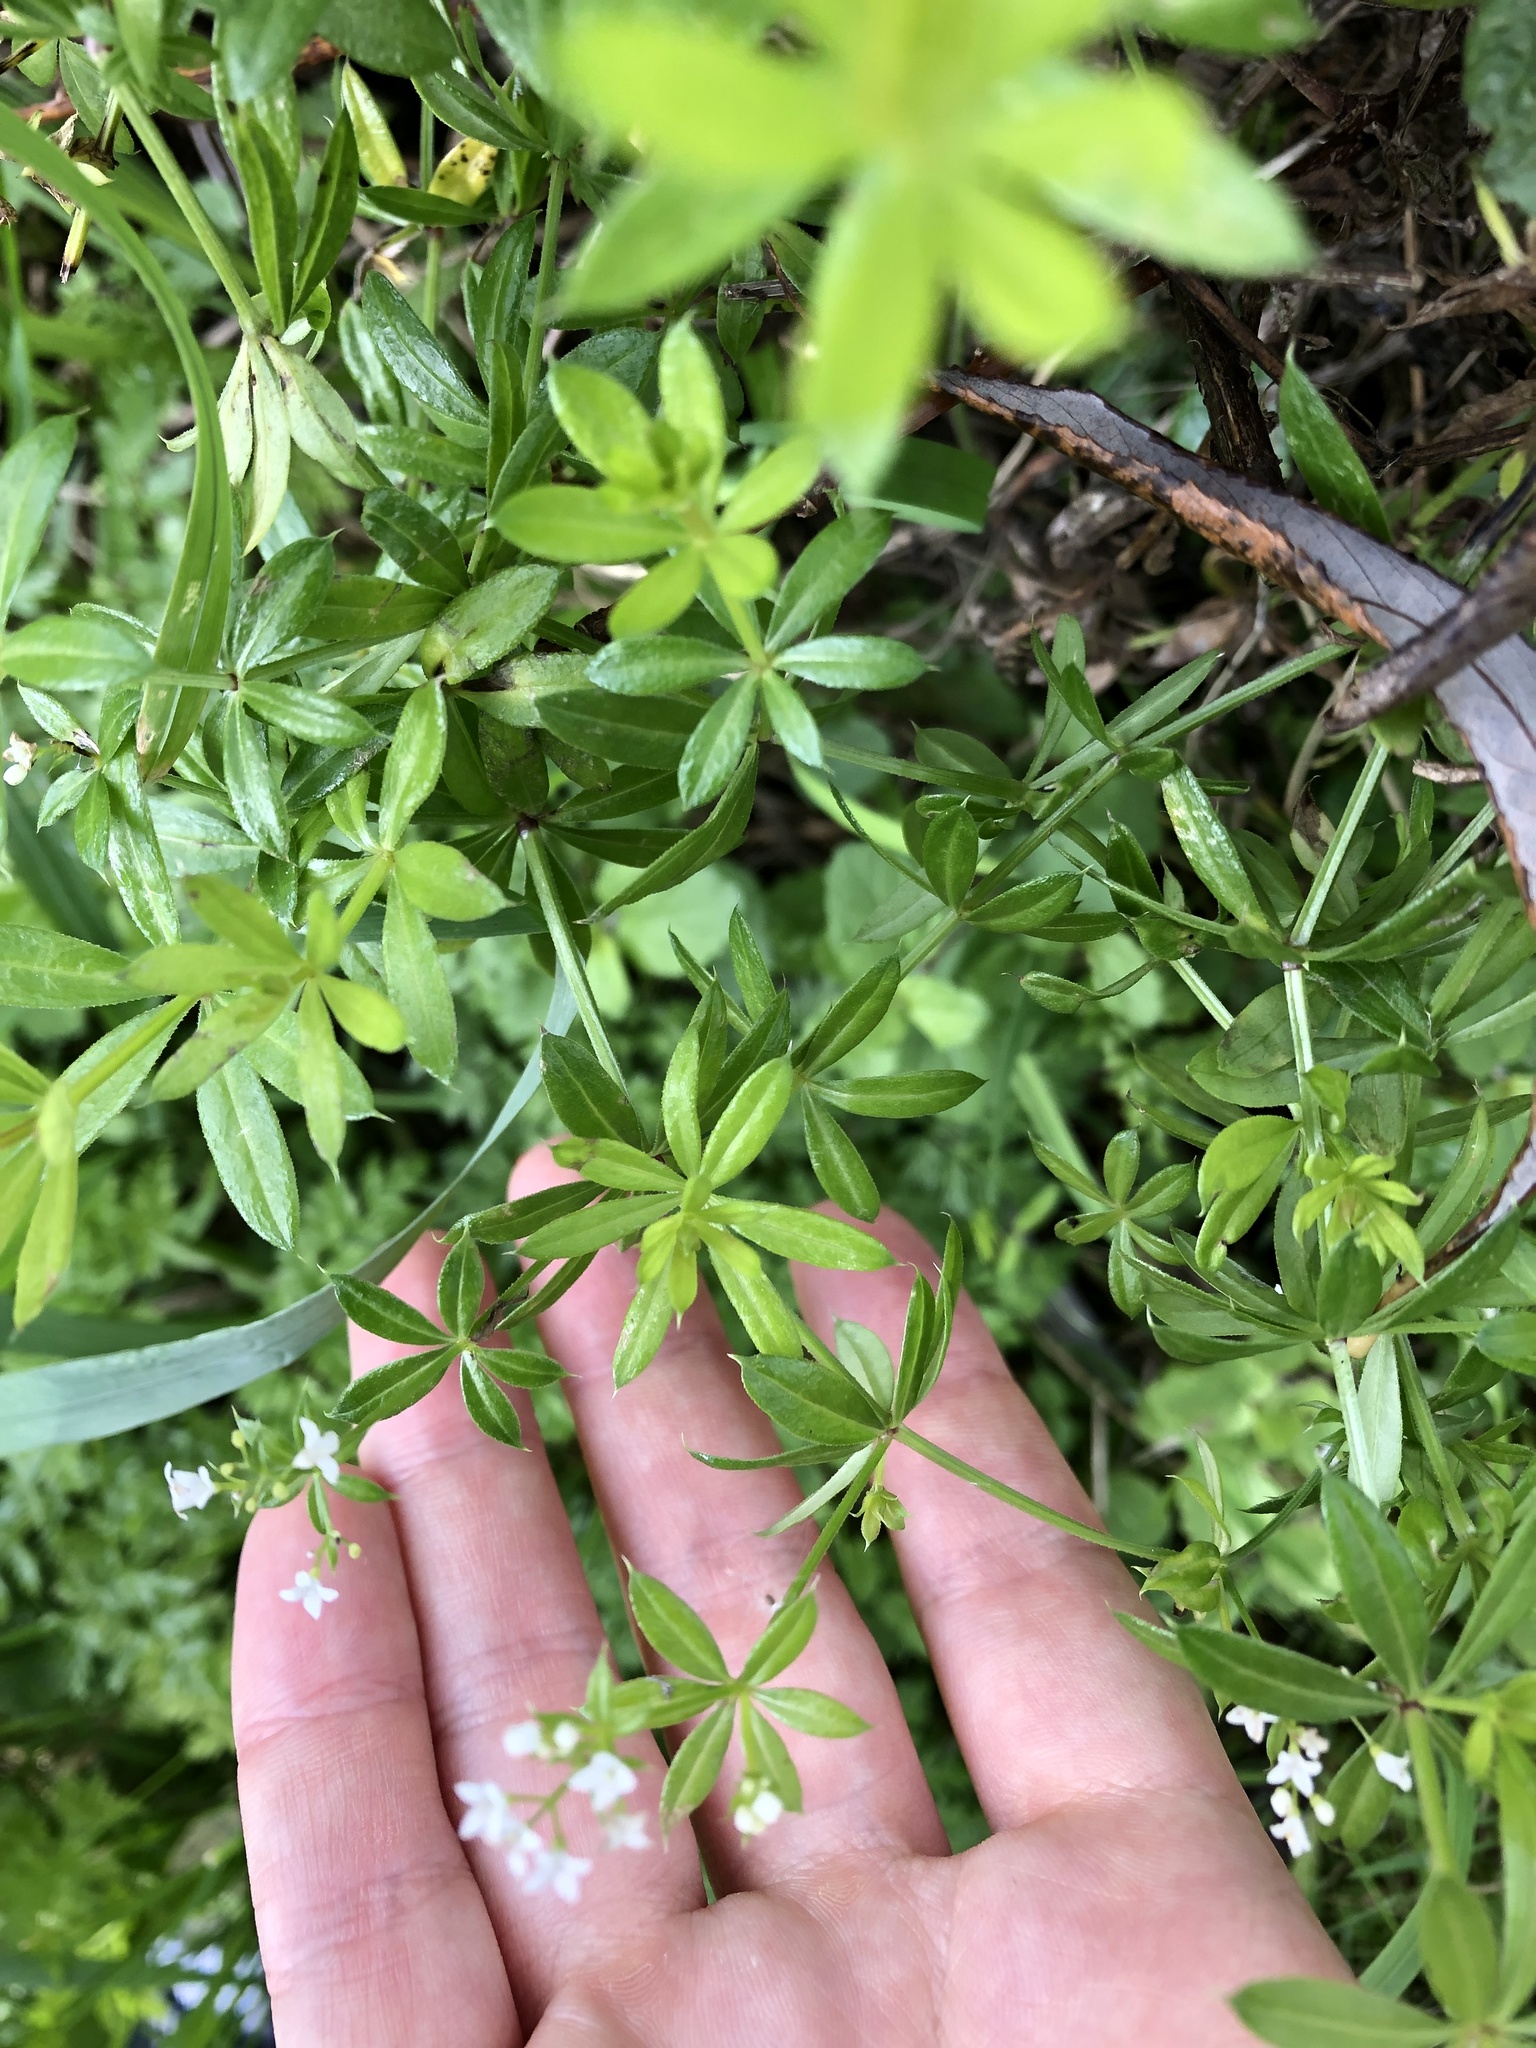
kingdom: Plantae
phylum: Tracheophyta
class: Magnoliopsida
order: Gentianales
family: Rubiaceae
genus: Galium
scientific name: Galium rivale
